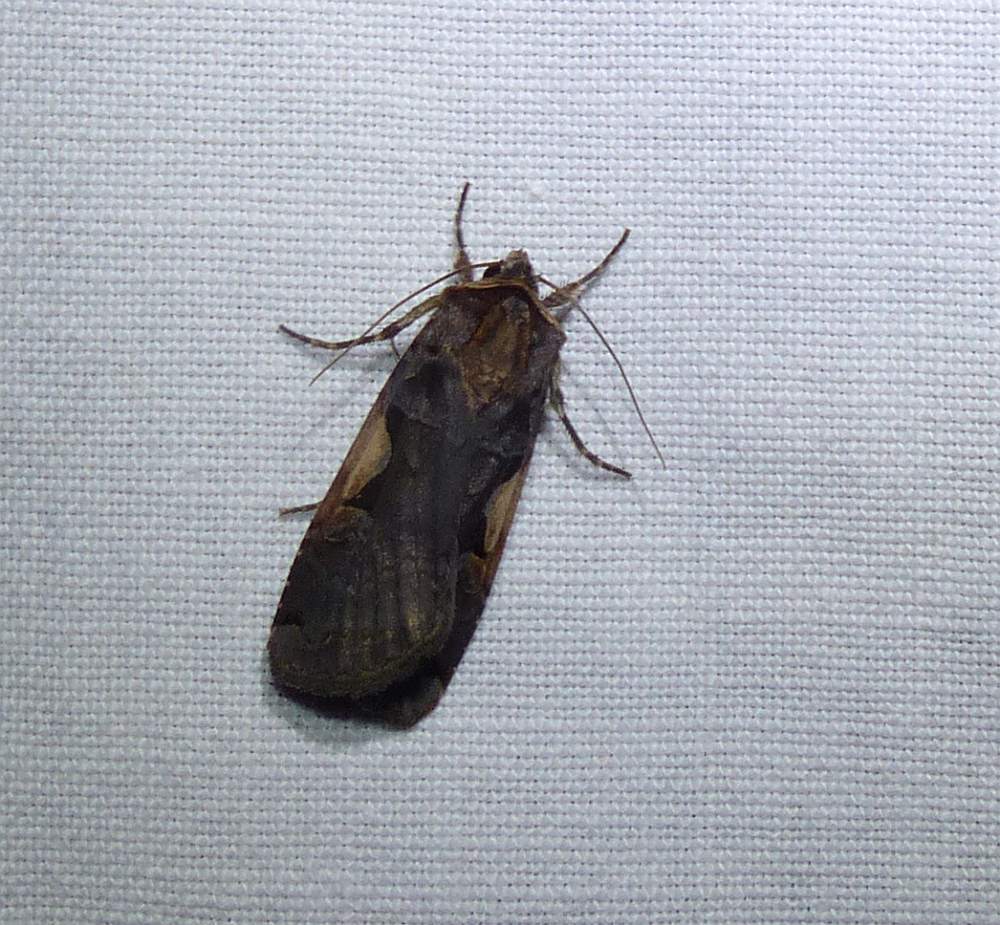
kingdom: Animalia
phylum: Arthropoda
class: Insecta
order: Lepidoptera
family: Noctuidae
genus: Xestia
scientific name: Xestia
